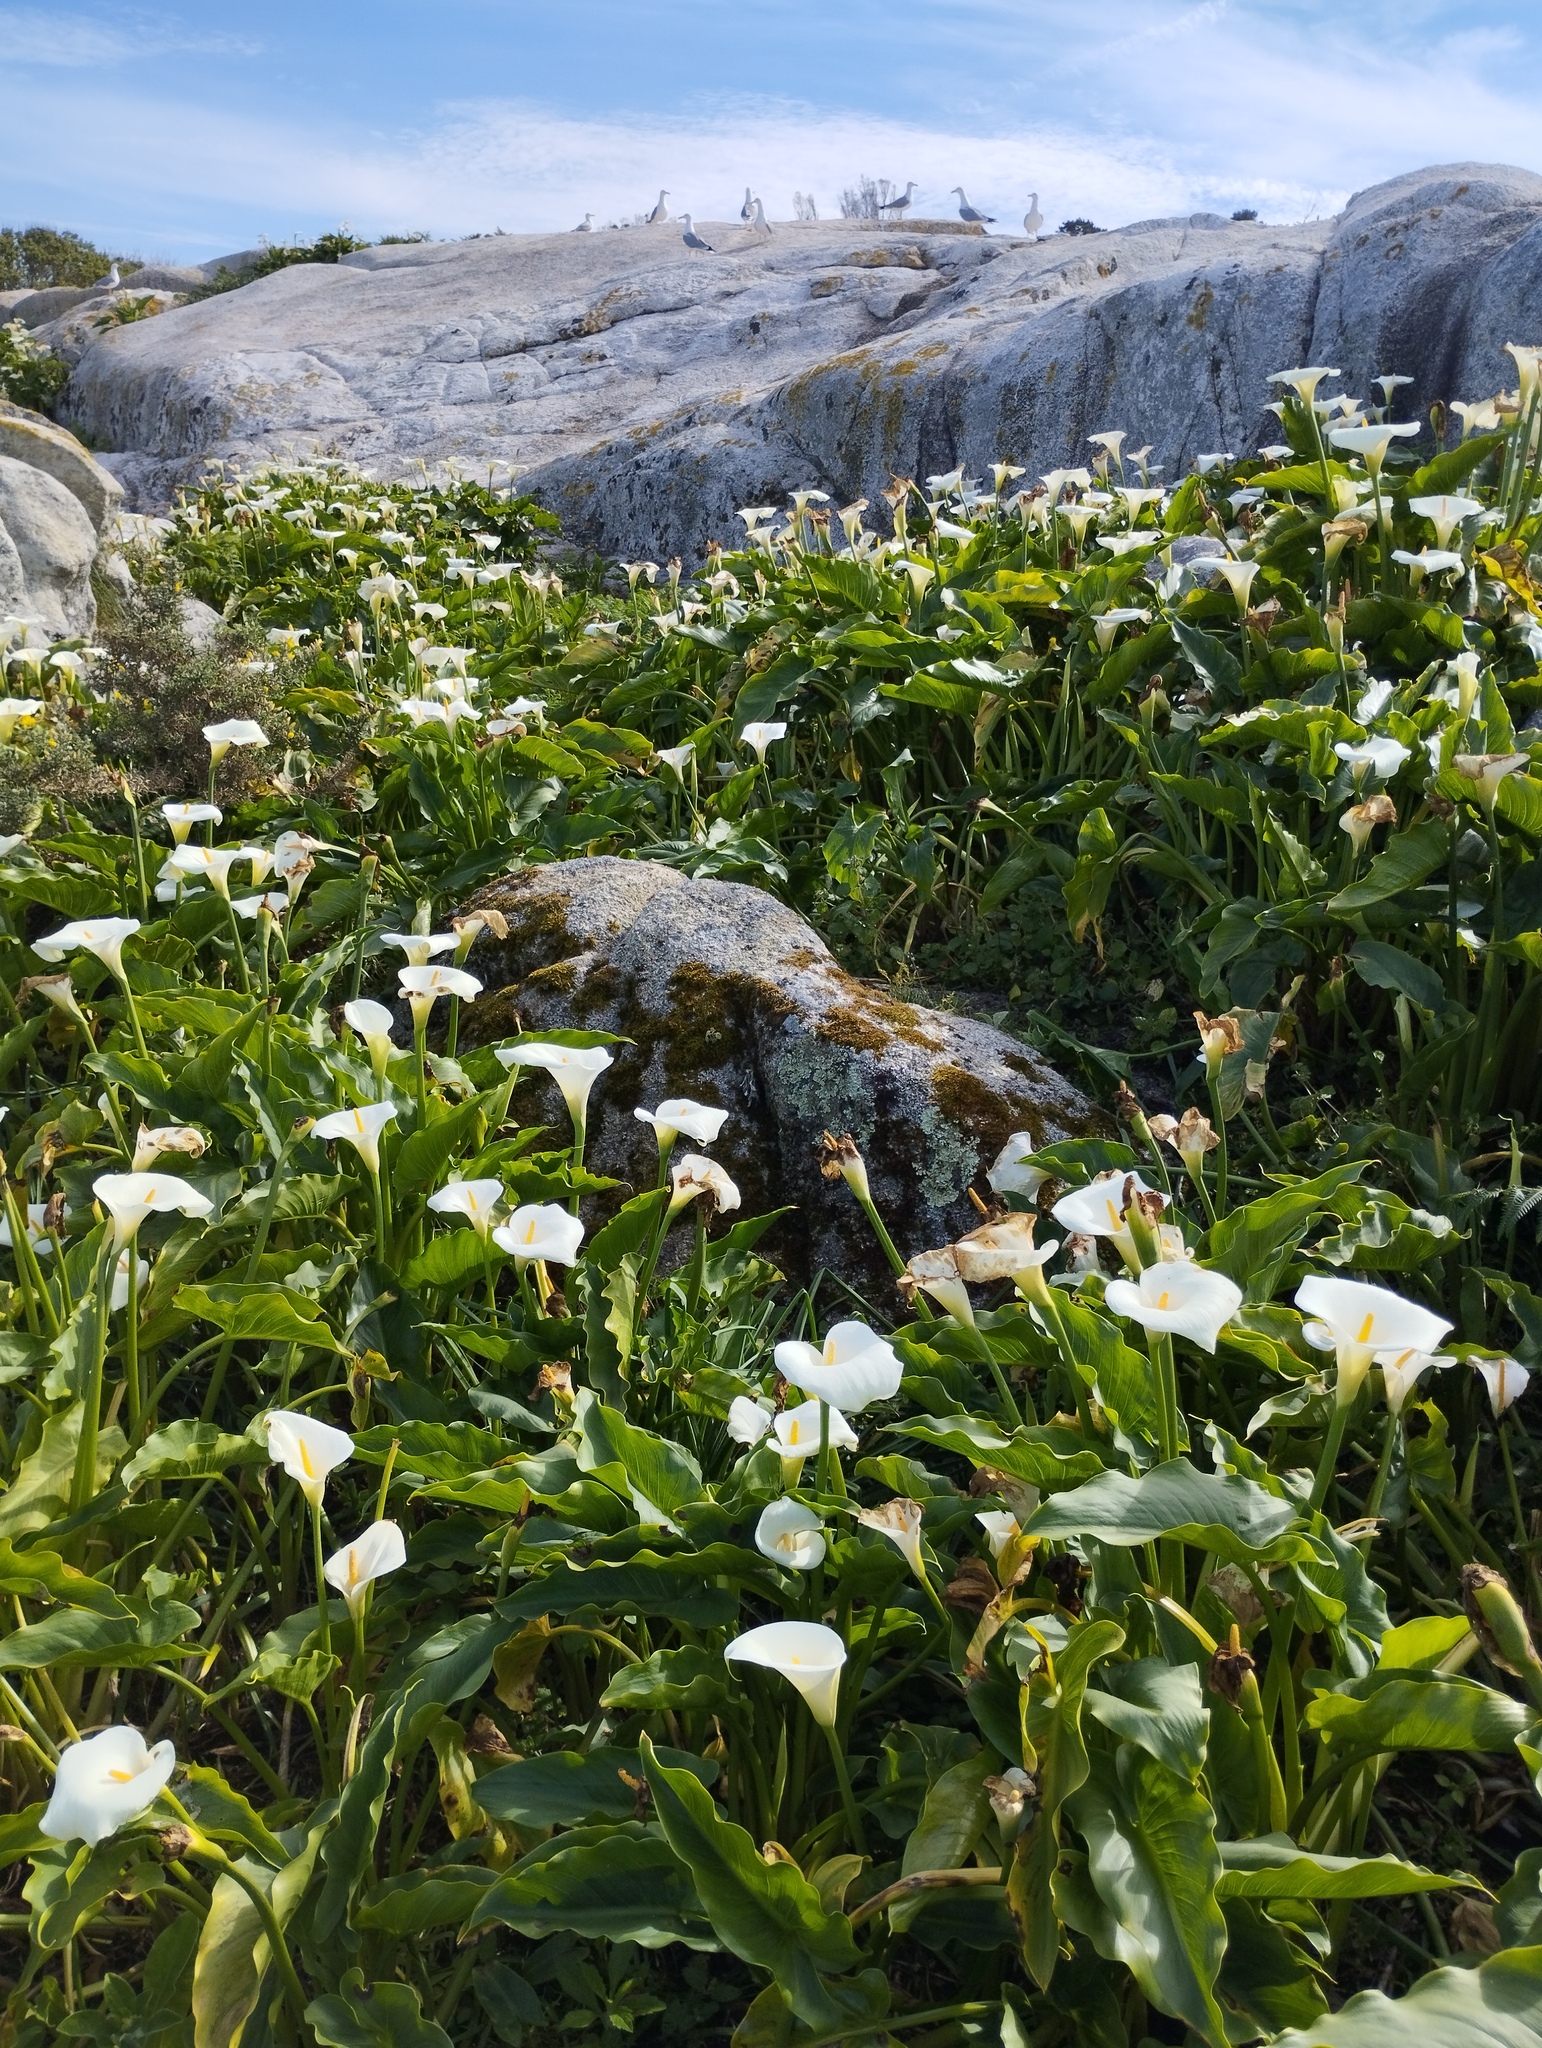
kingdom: Plantae
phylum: Tracheophyta
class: Liliopsida
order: Alismatales
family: Araceae
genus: Zantedeschia
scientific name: Zantedeschia aethiopica
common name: Altar-lily
